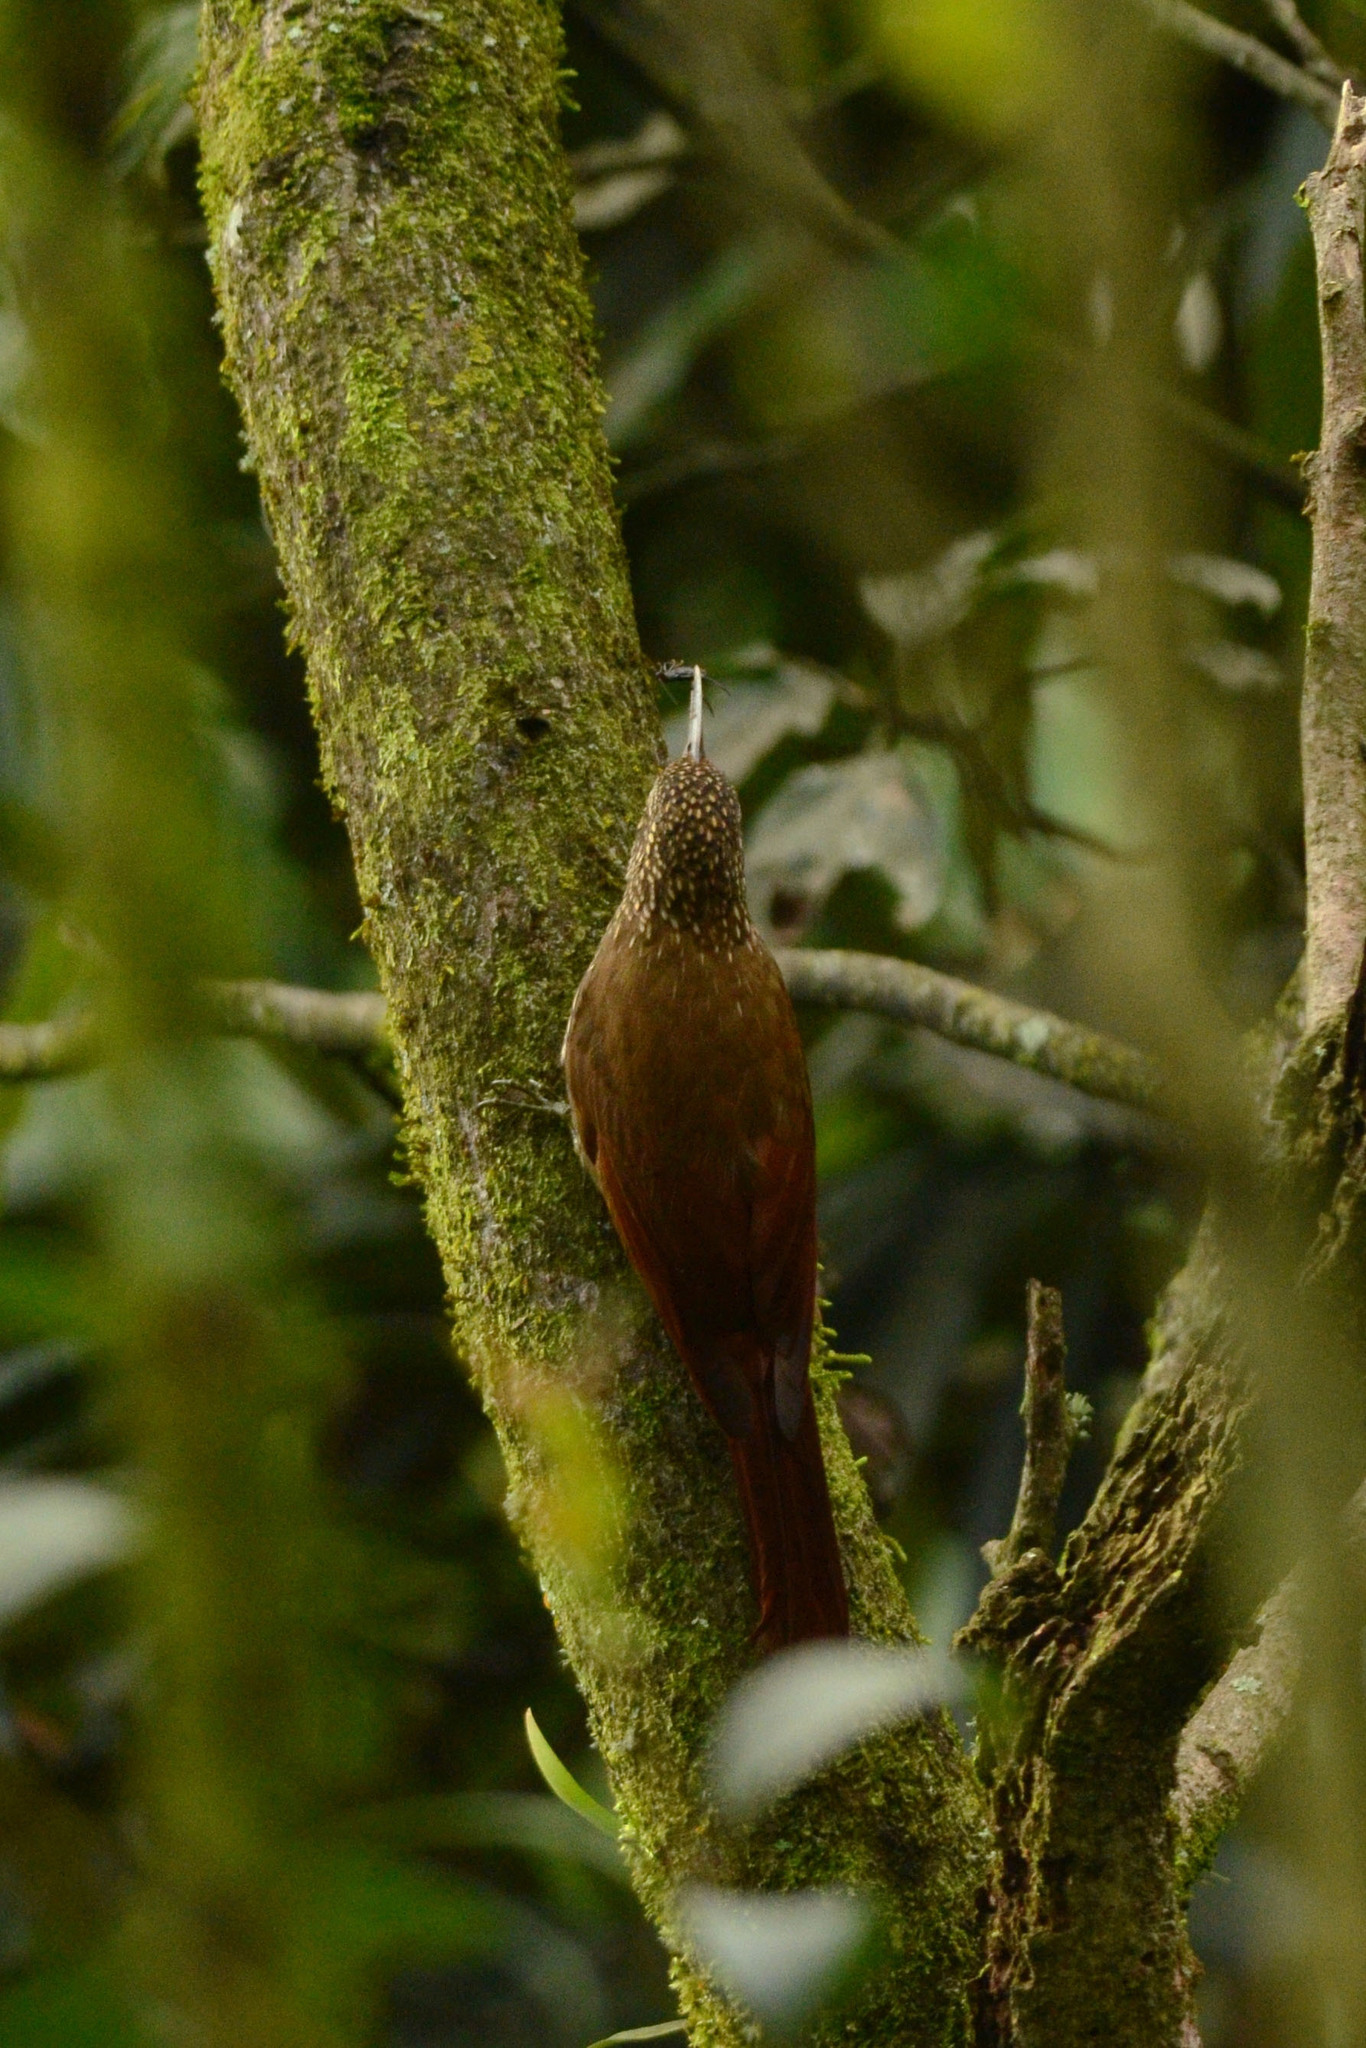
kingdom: Animalia
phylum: Chordata
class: Aves
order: Passeriformes
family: Furnariidae
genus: Lepidocolaptes
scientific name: Lepidocolaptes affinis
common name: Spot-crowned woodcreeper
